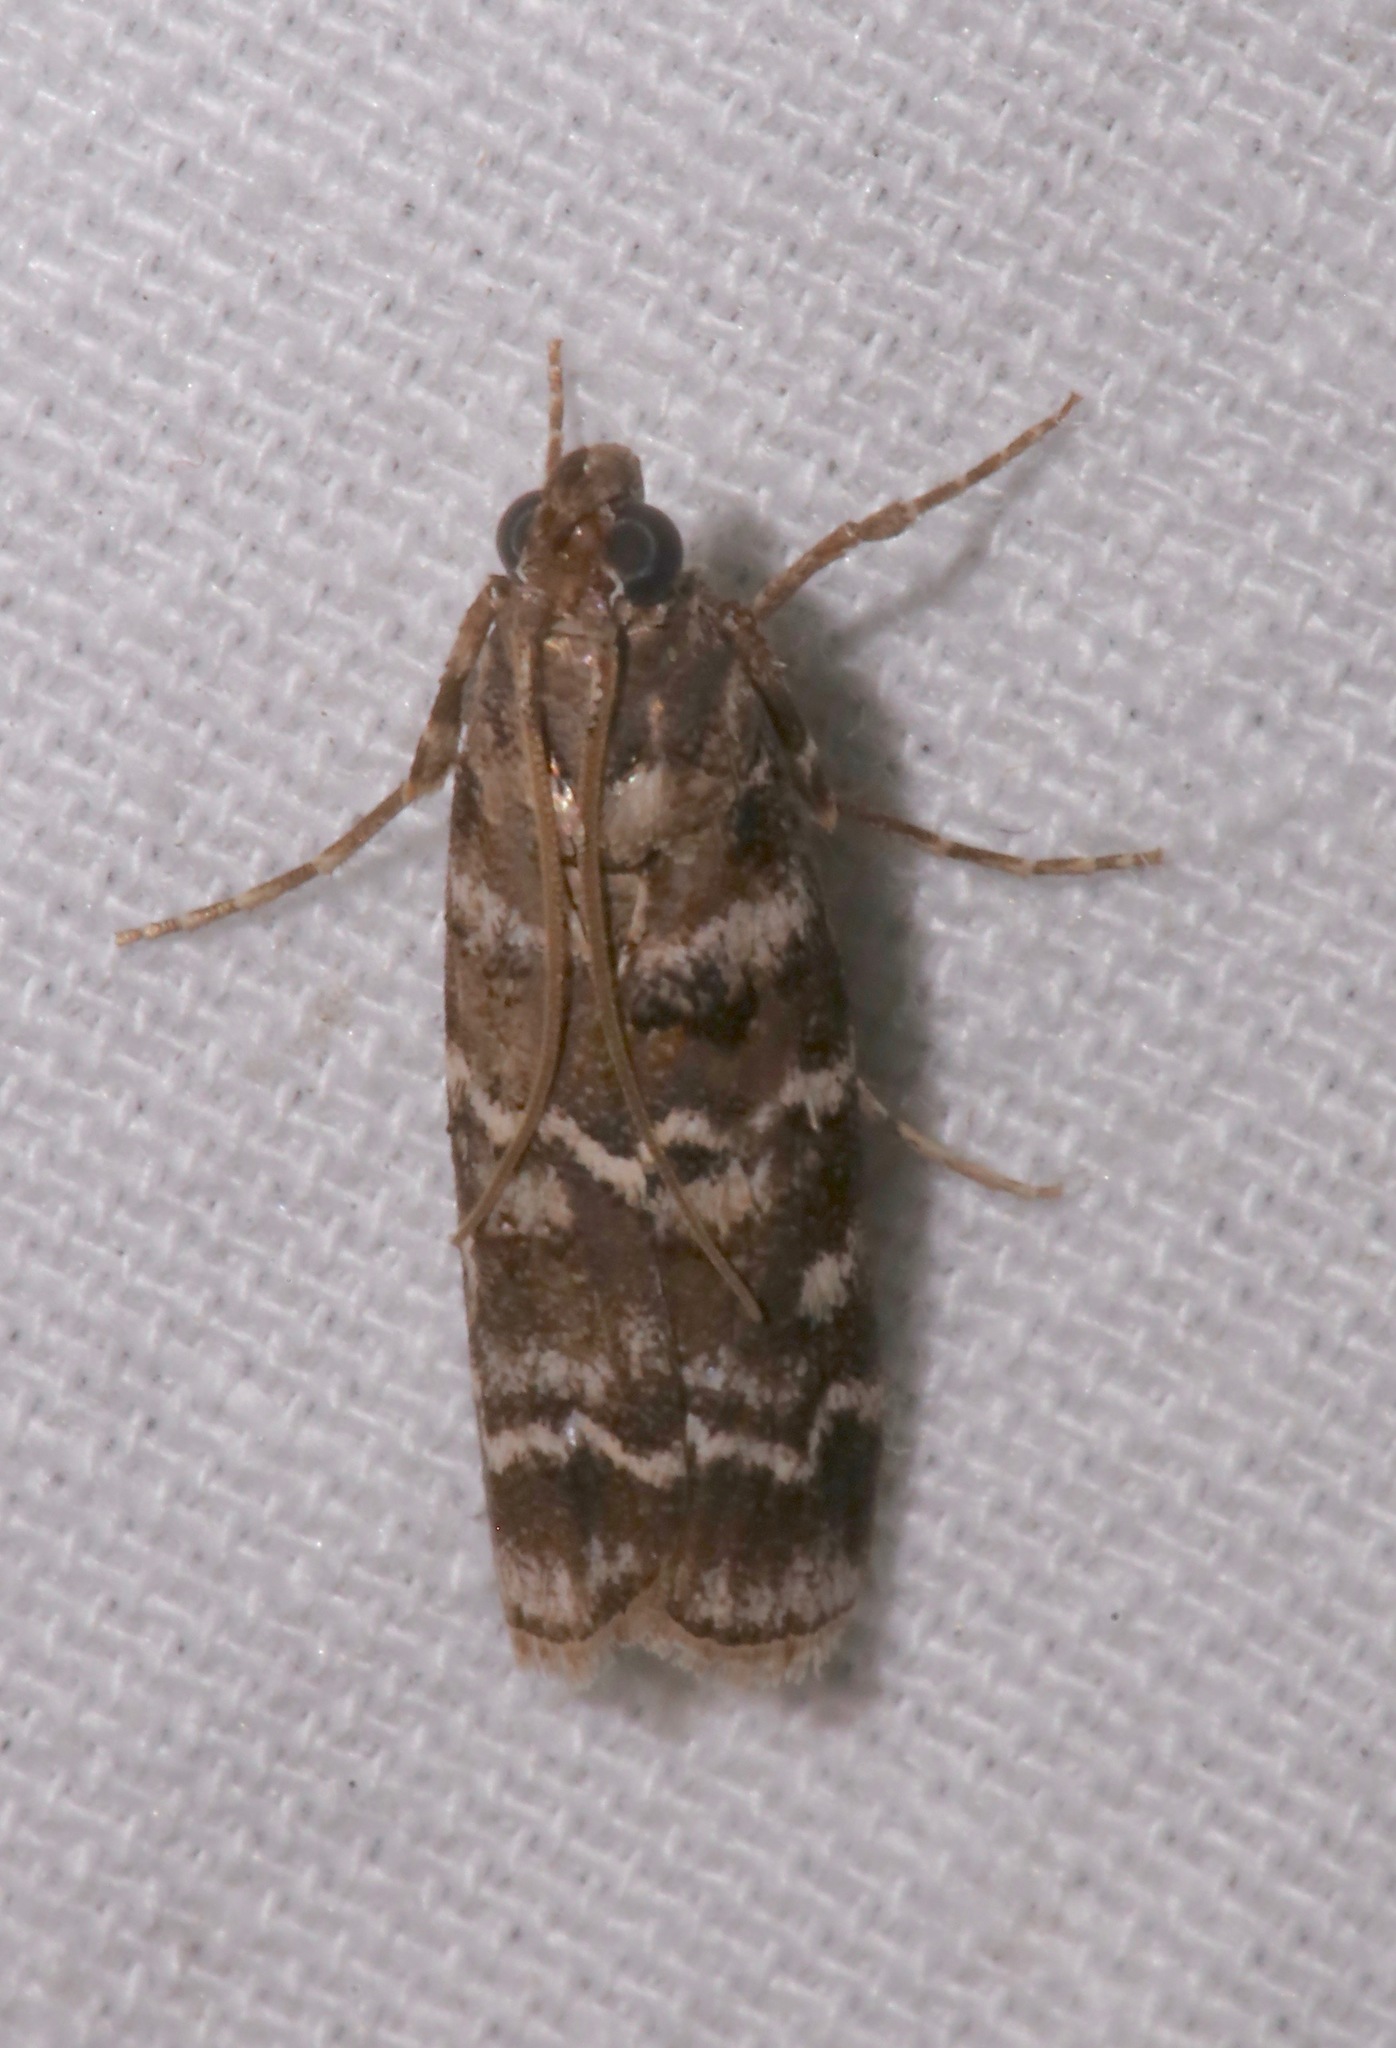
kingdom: Animalia
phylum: Arthropoda
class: Insecta
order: Lepidoptera
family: Pyralidae
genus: Dioryctria
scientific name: Dioryctria amatella
